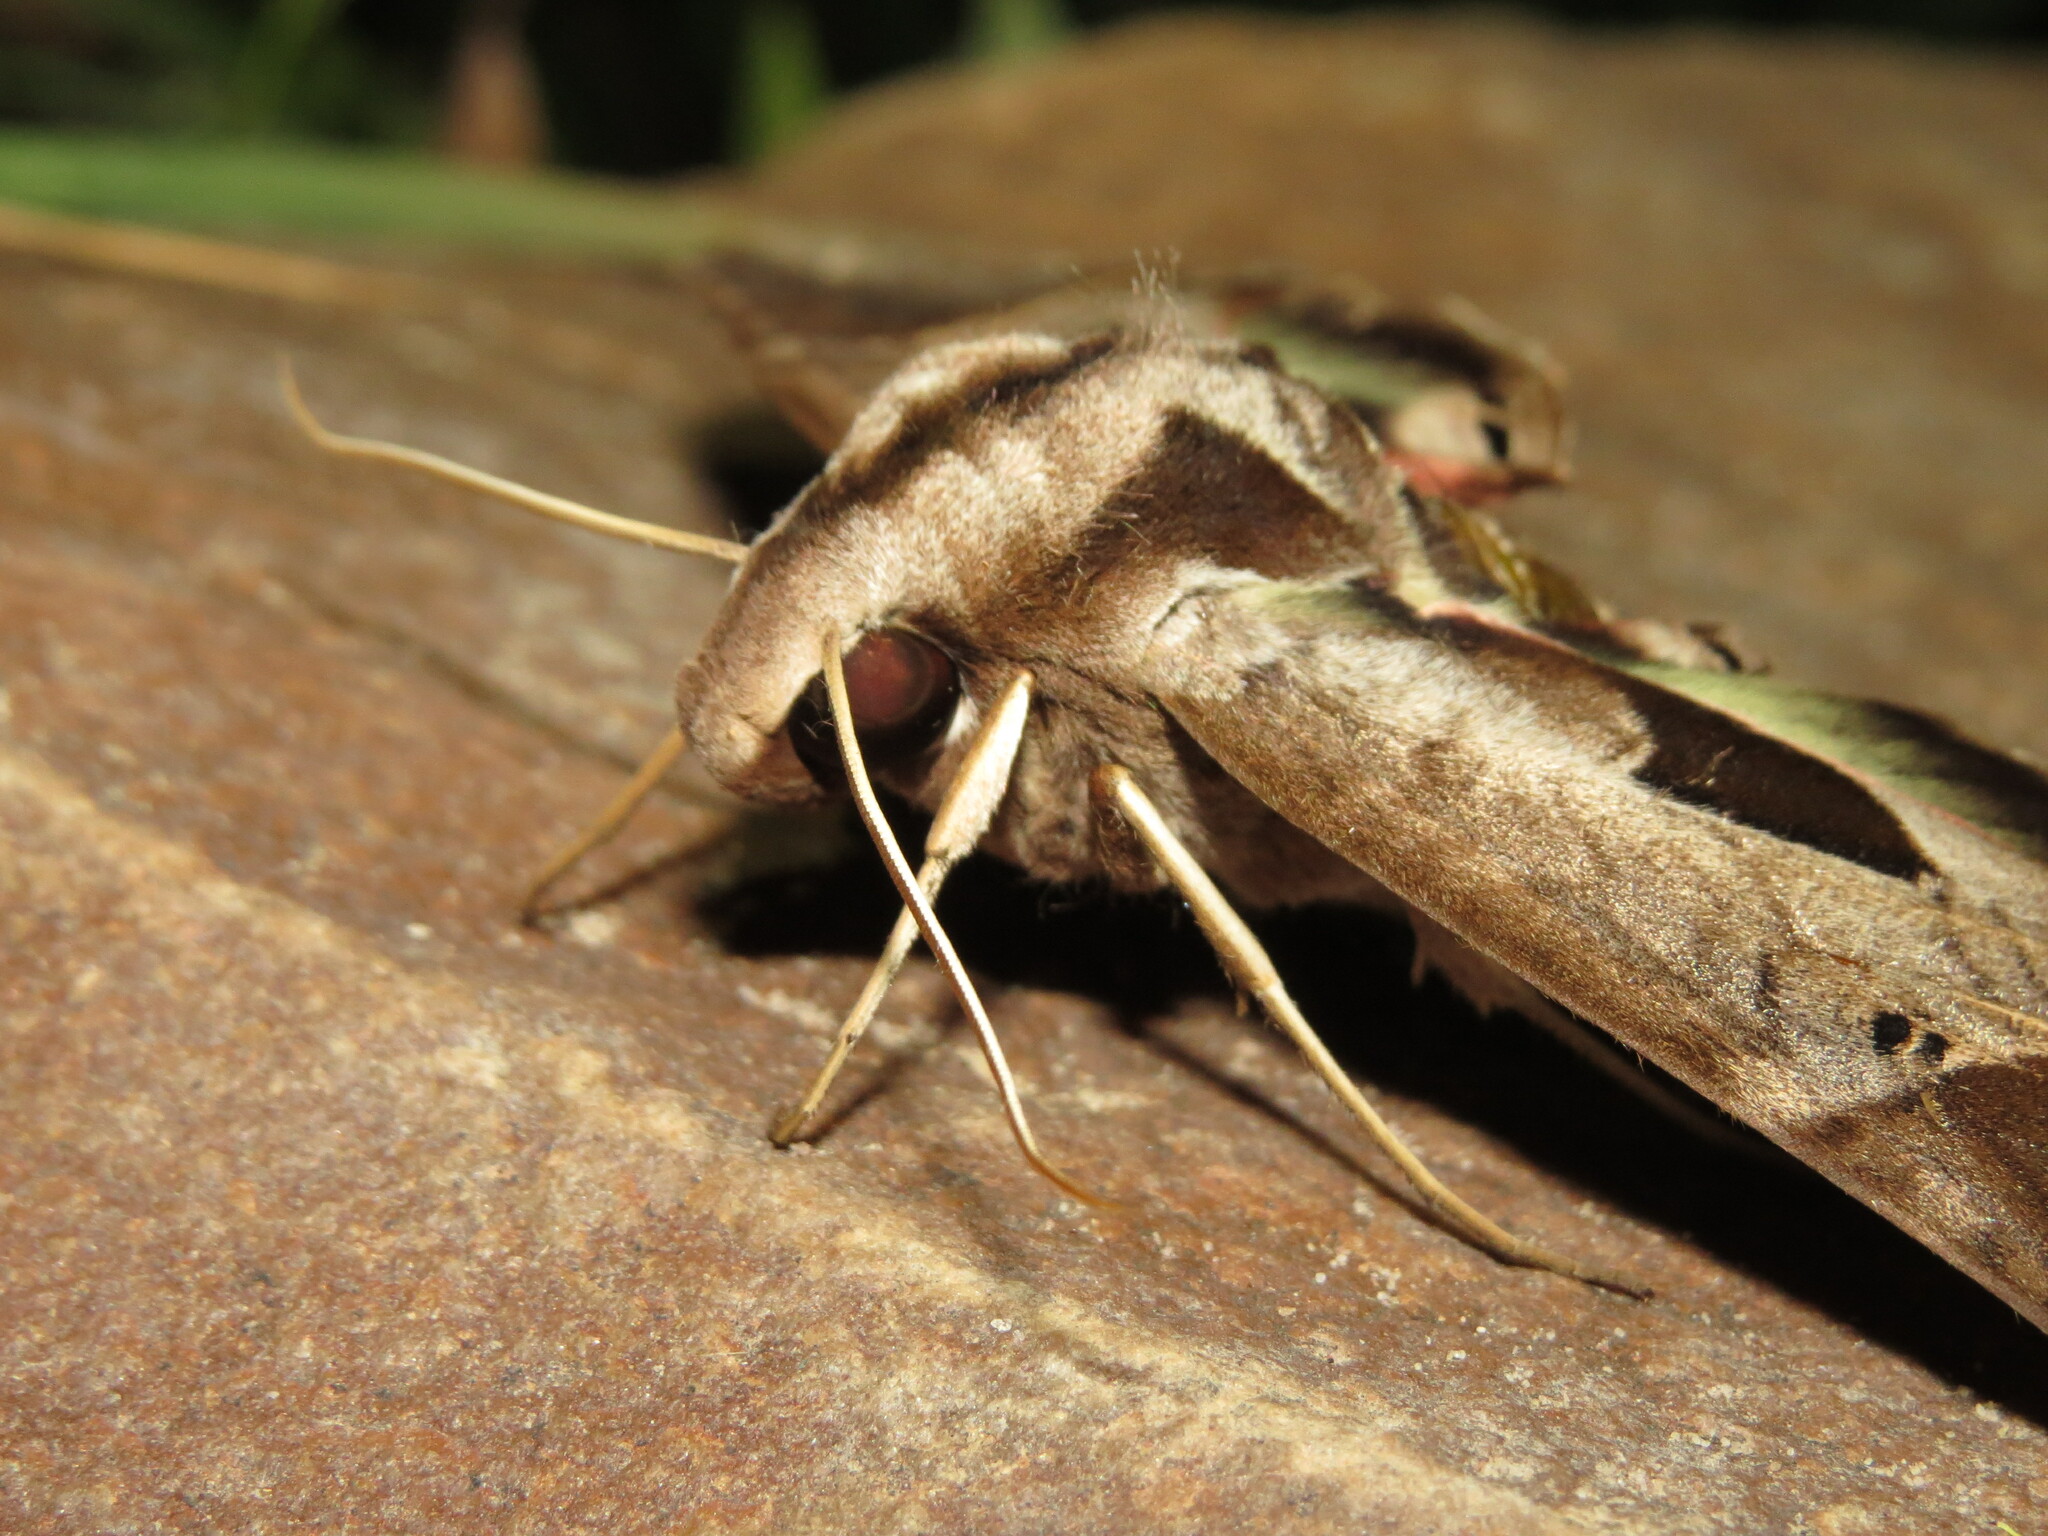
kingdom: Animalia
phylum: Arthropoda
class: Insecta
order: Lepidoptera
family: Sphingidae
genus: Eumorpha
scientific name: Eumorpha analis
